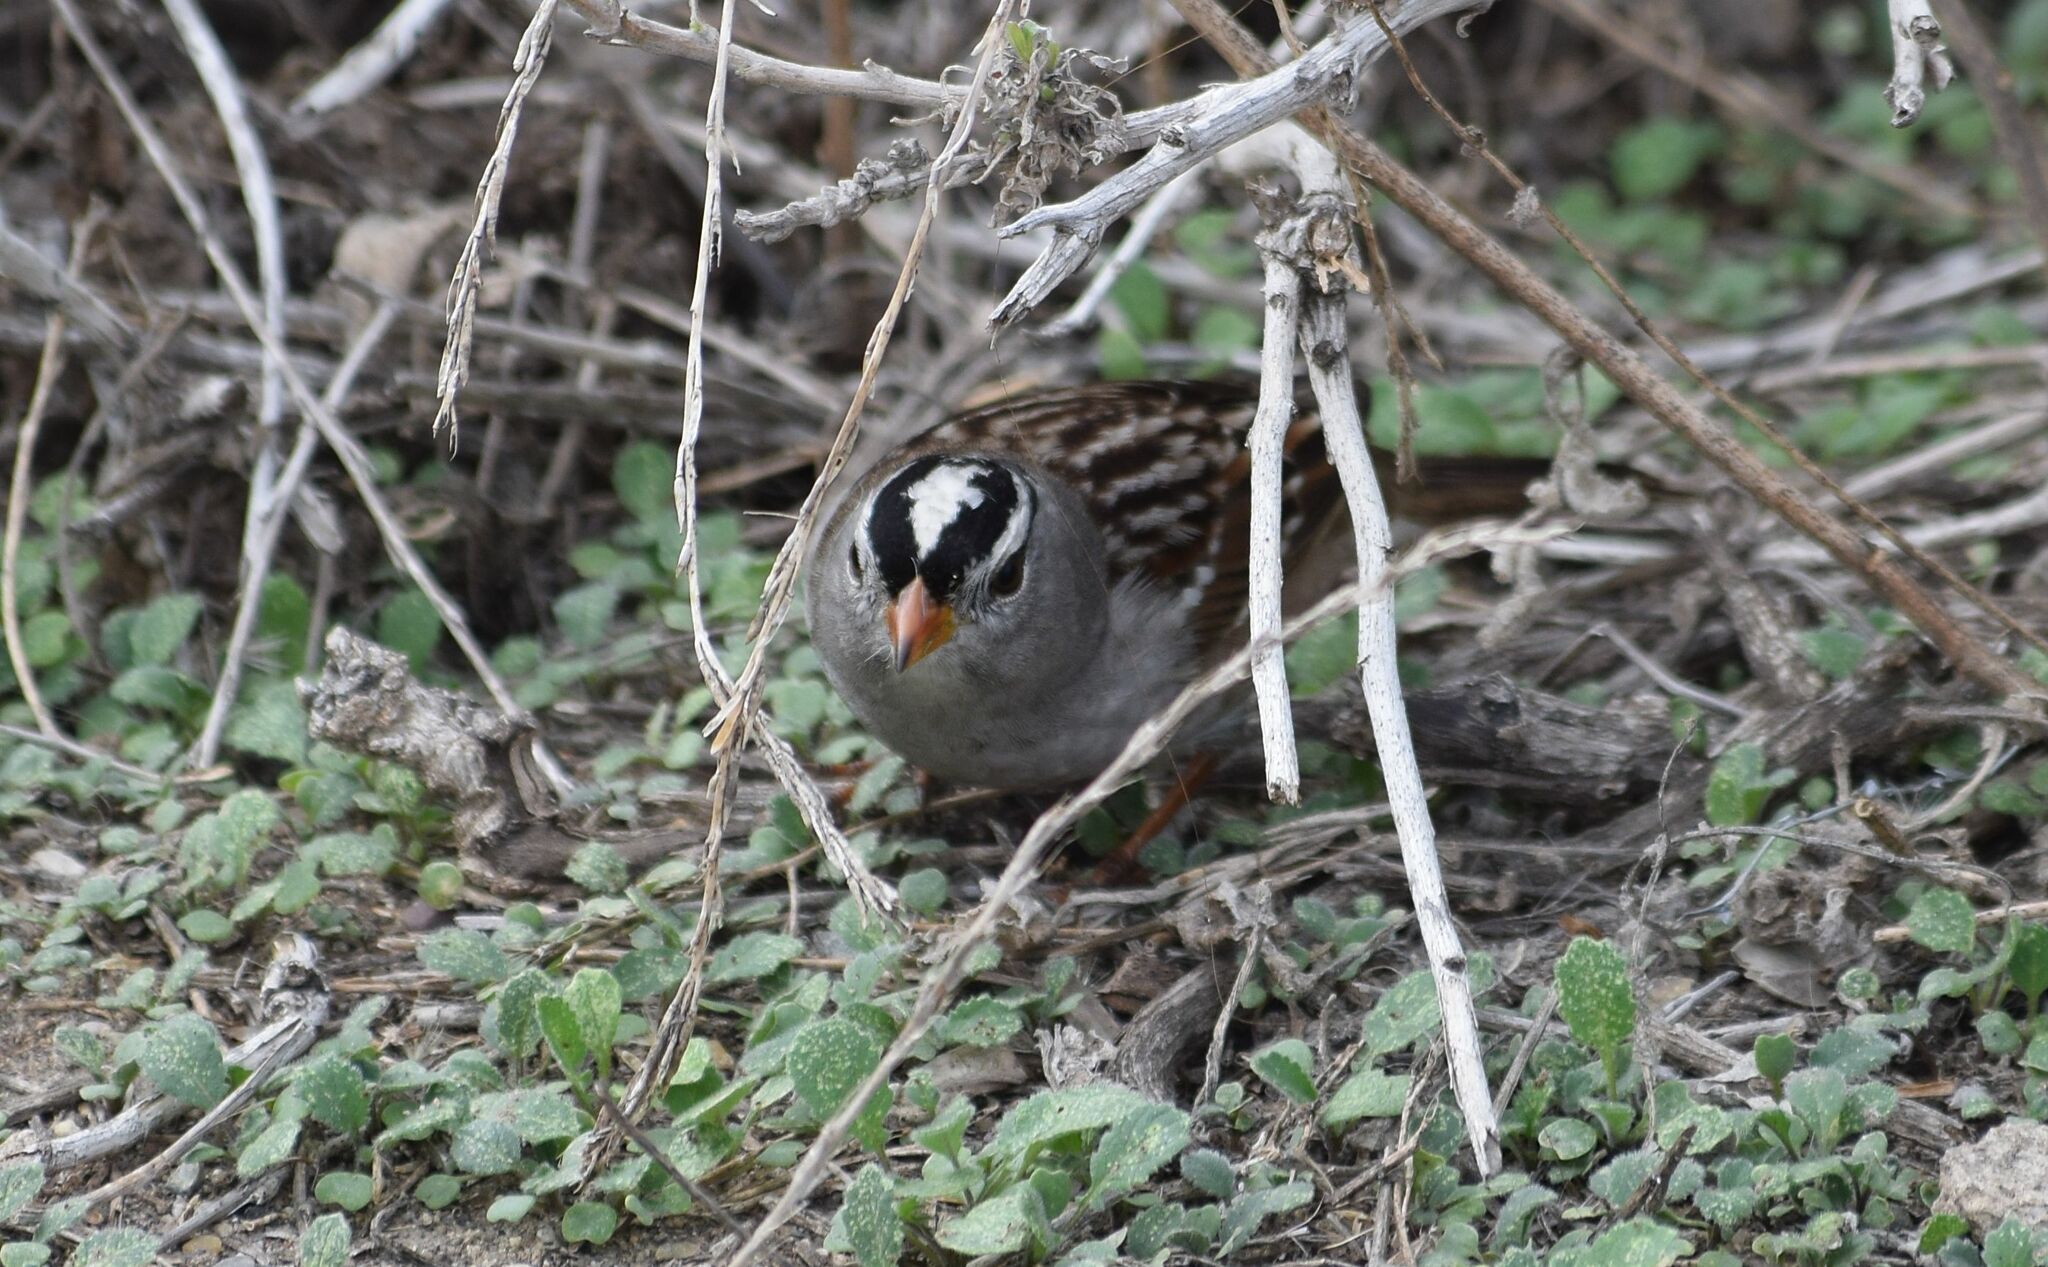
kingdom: Animalia
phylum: Chordata
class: Aves
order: Passeriformes
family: Passerellidae
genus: Zonotrichia
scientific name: Zonotrichia leucophrys
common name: White-crowned sparrow
